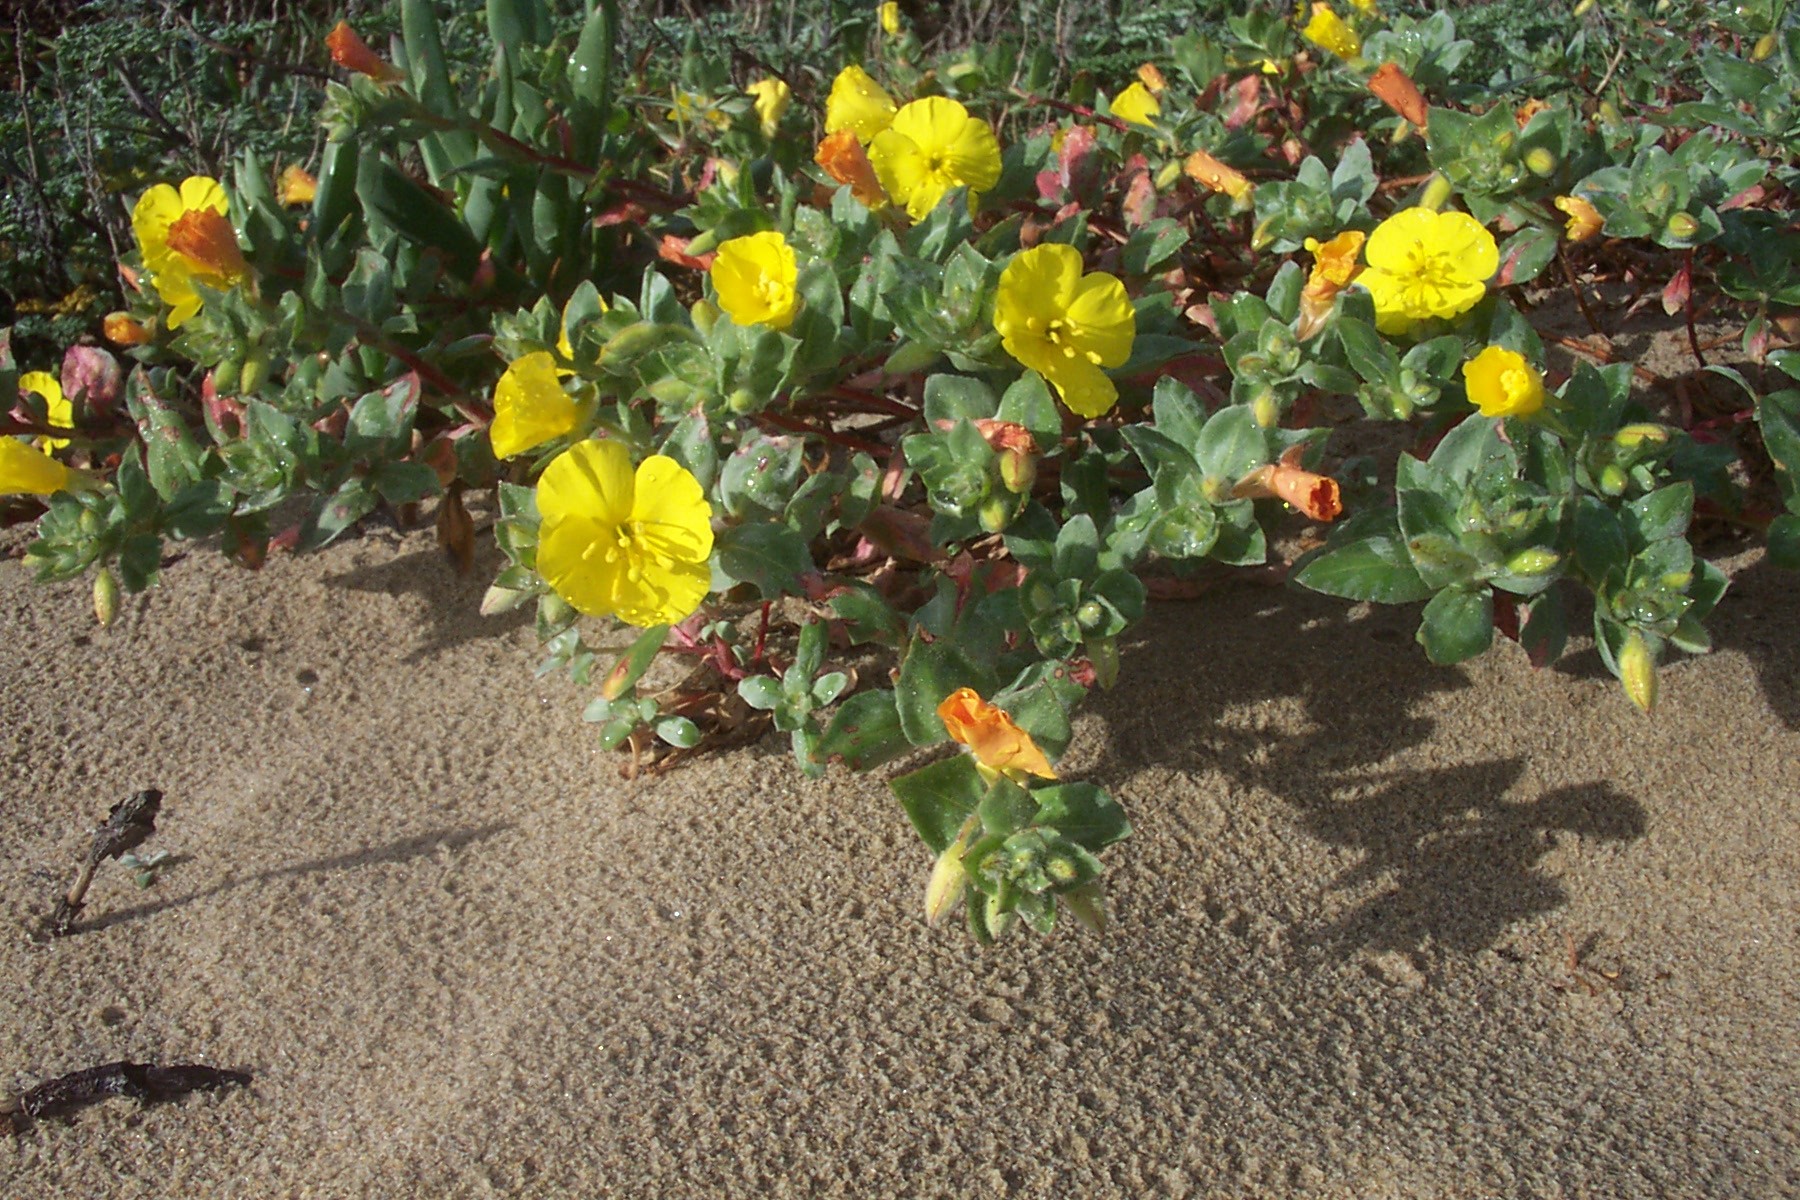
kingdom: Plantae
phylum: Tracheophyta
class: Magnoliopsida
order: Myrtales
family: Onagraceae
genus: Camissoniopsis
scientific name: Camissoniopsis cheiranthifolia
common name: Beach suncup
